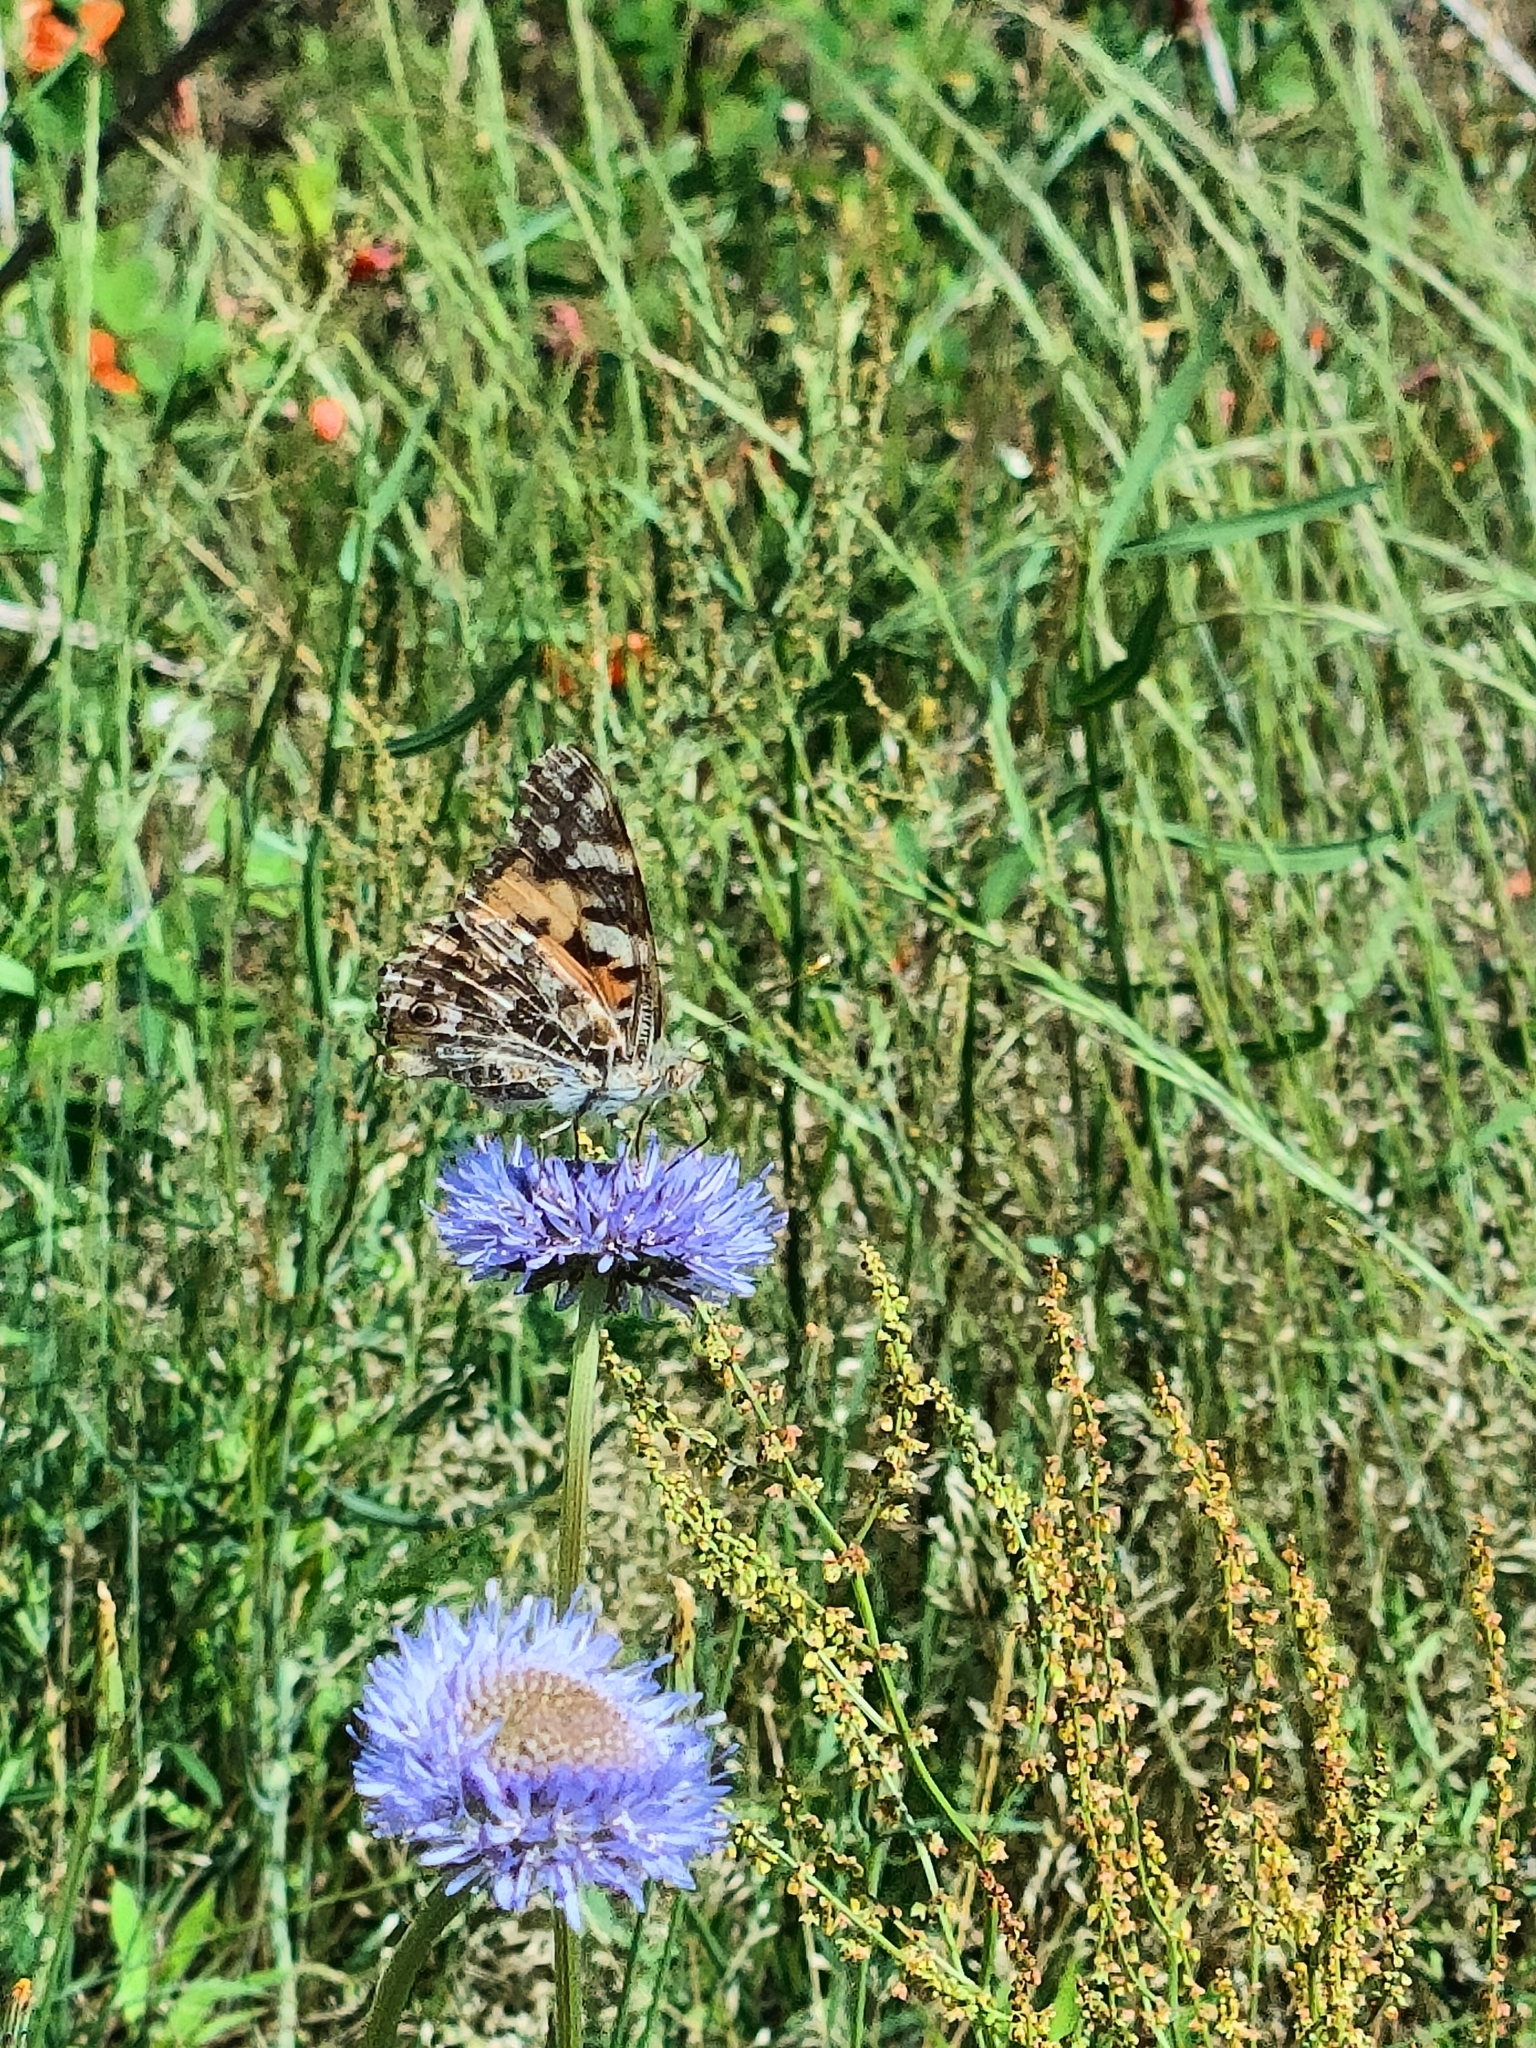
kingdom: Animalia
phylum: Arthropoda
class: Insecta
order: Lepidoptera
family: Nymphalidae
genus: Vanessa
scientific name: Vanessa cardui
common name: Painted lady
